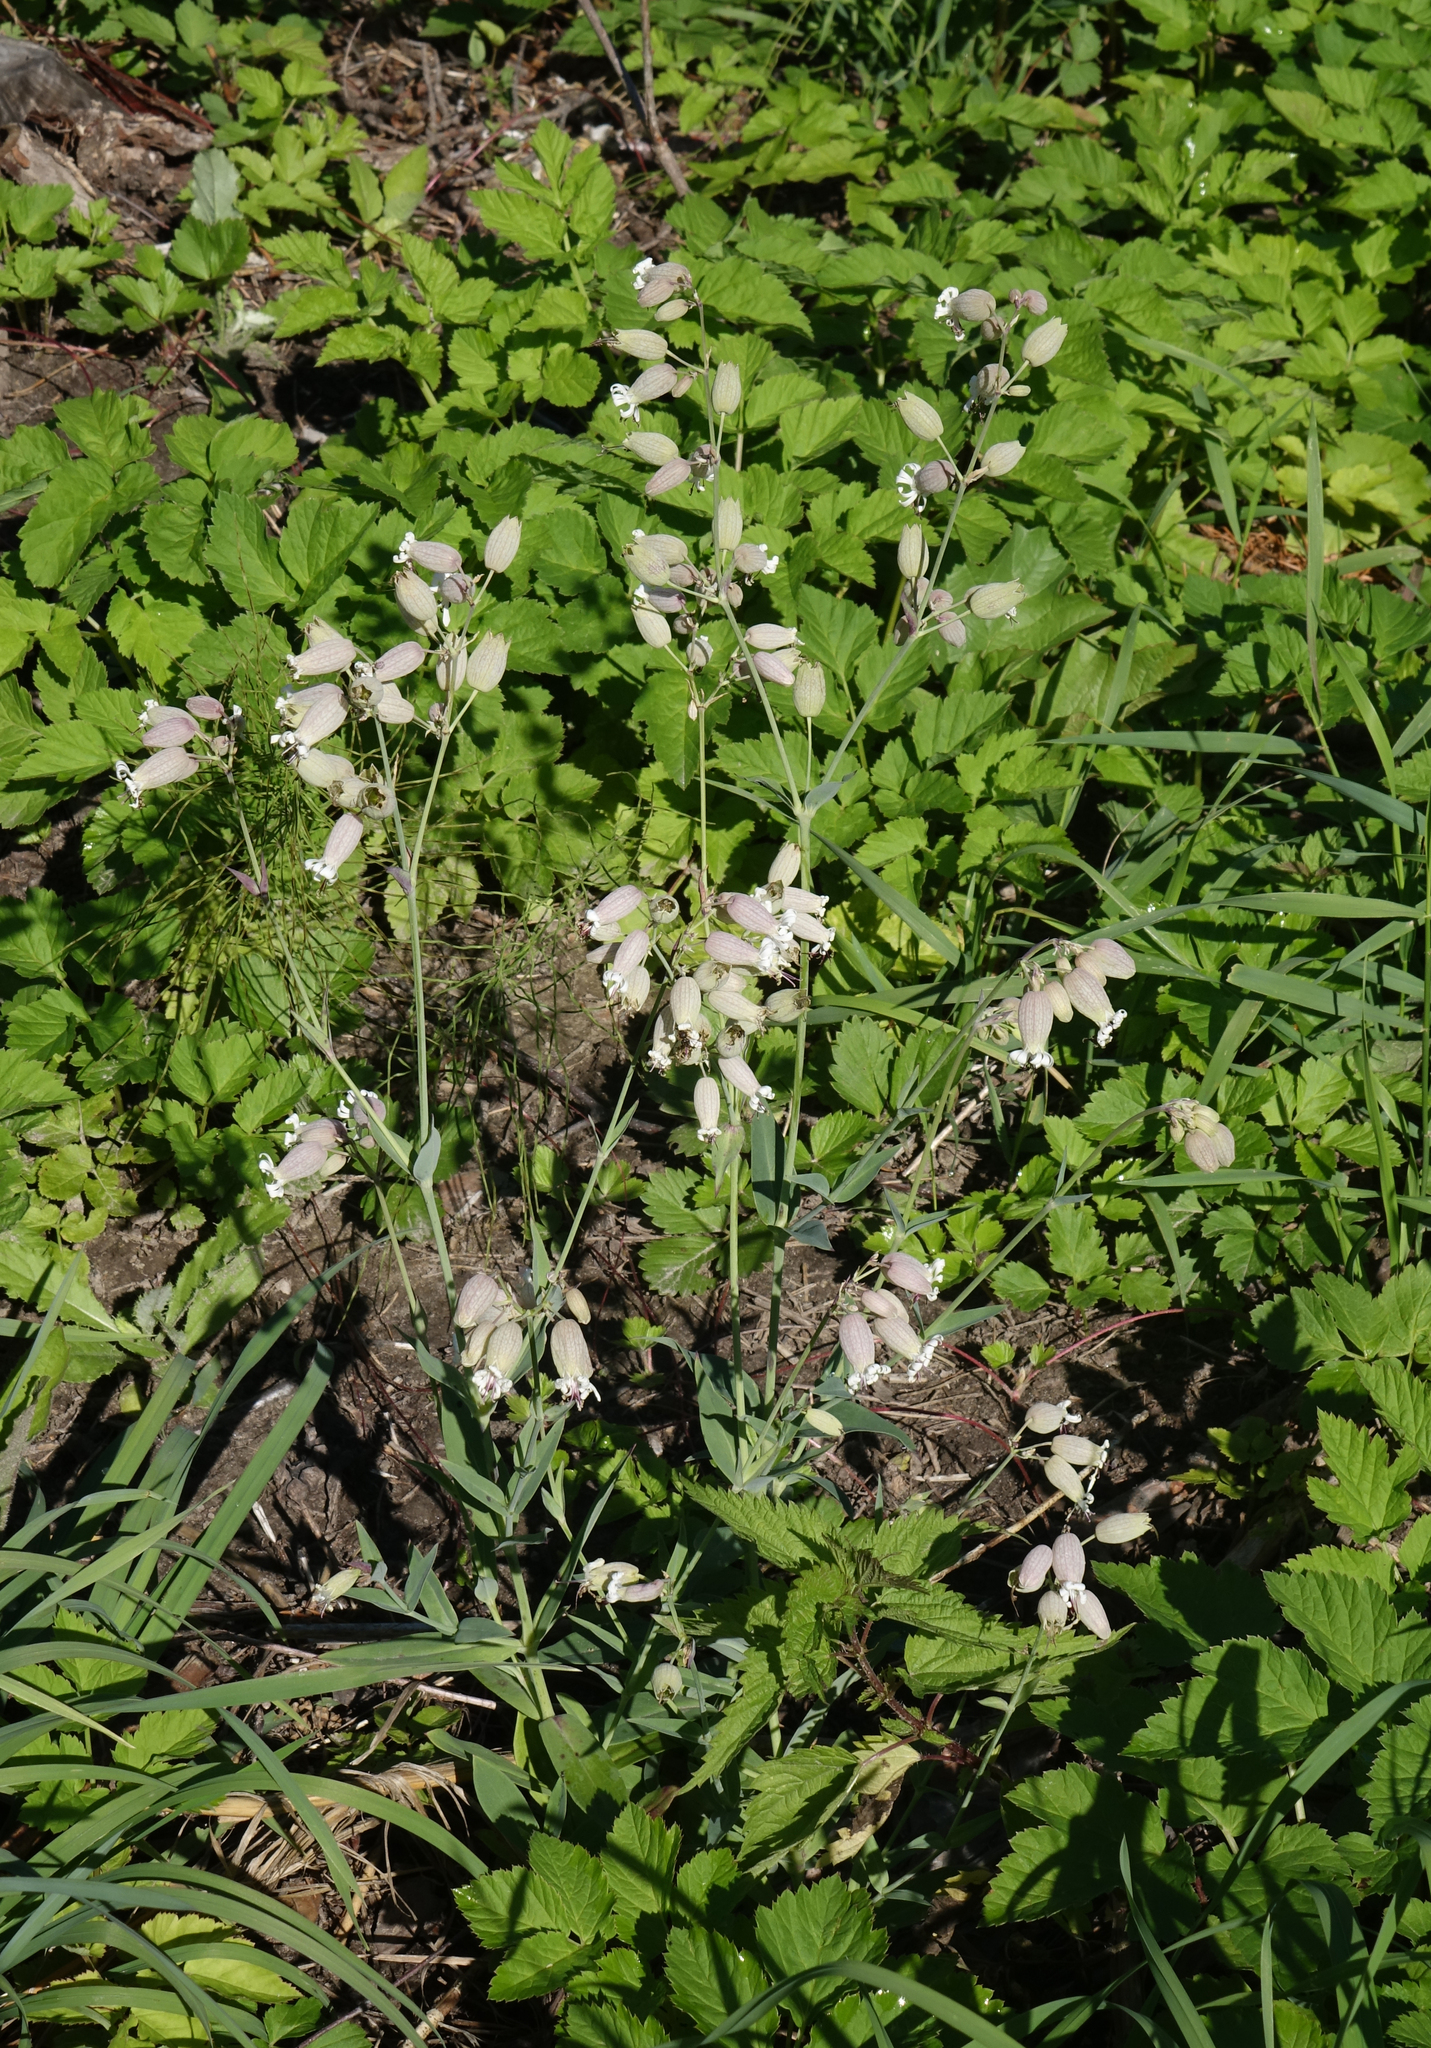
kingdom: Plantae
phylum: Tracheophyta
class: Magnoliopsida
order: Caryophyllales
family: Caryophyllaceae
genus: Silene
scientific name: Silene vulgaris
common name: Bladder campion
